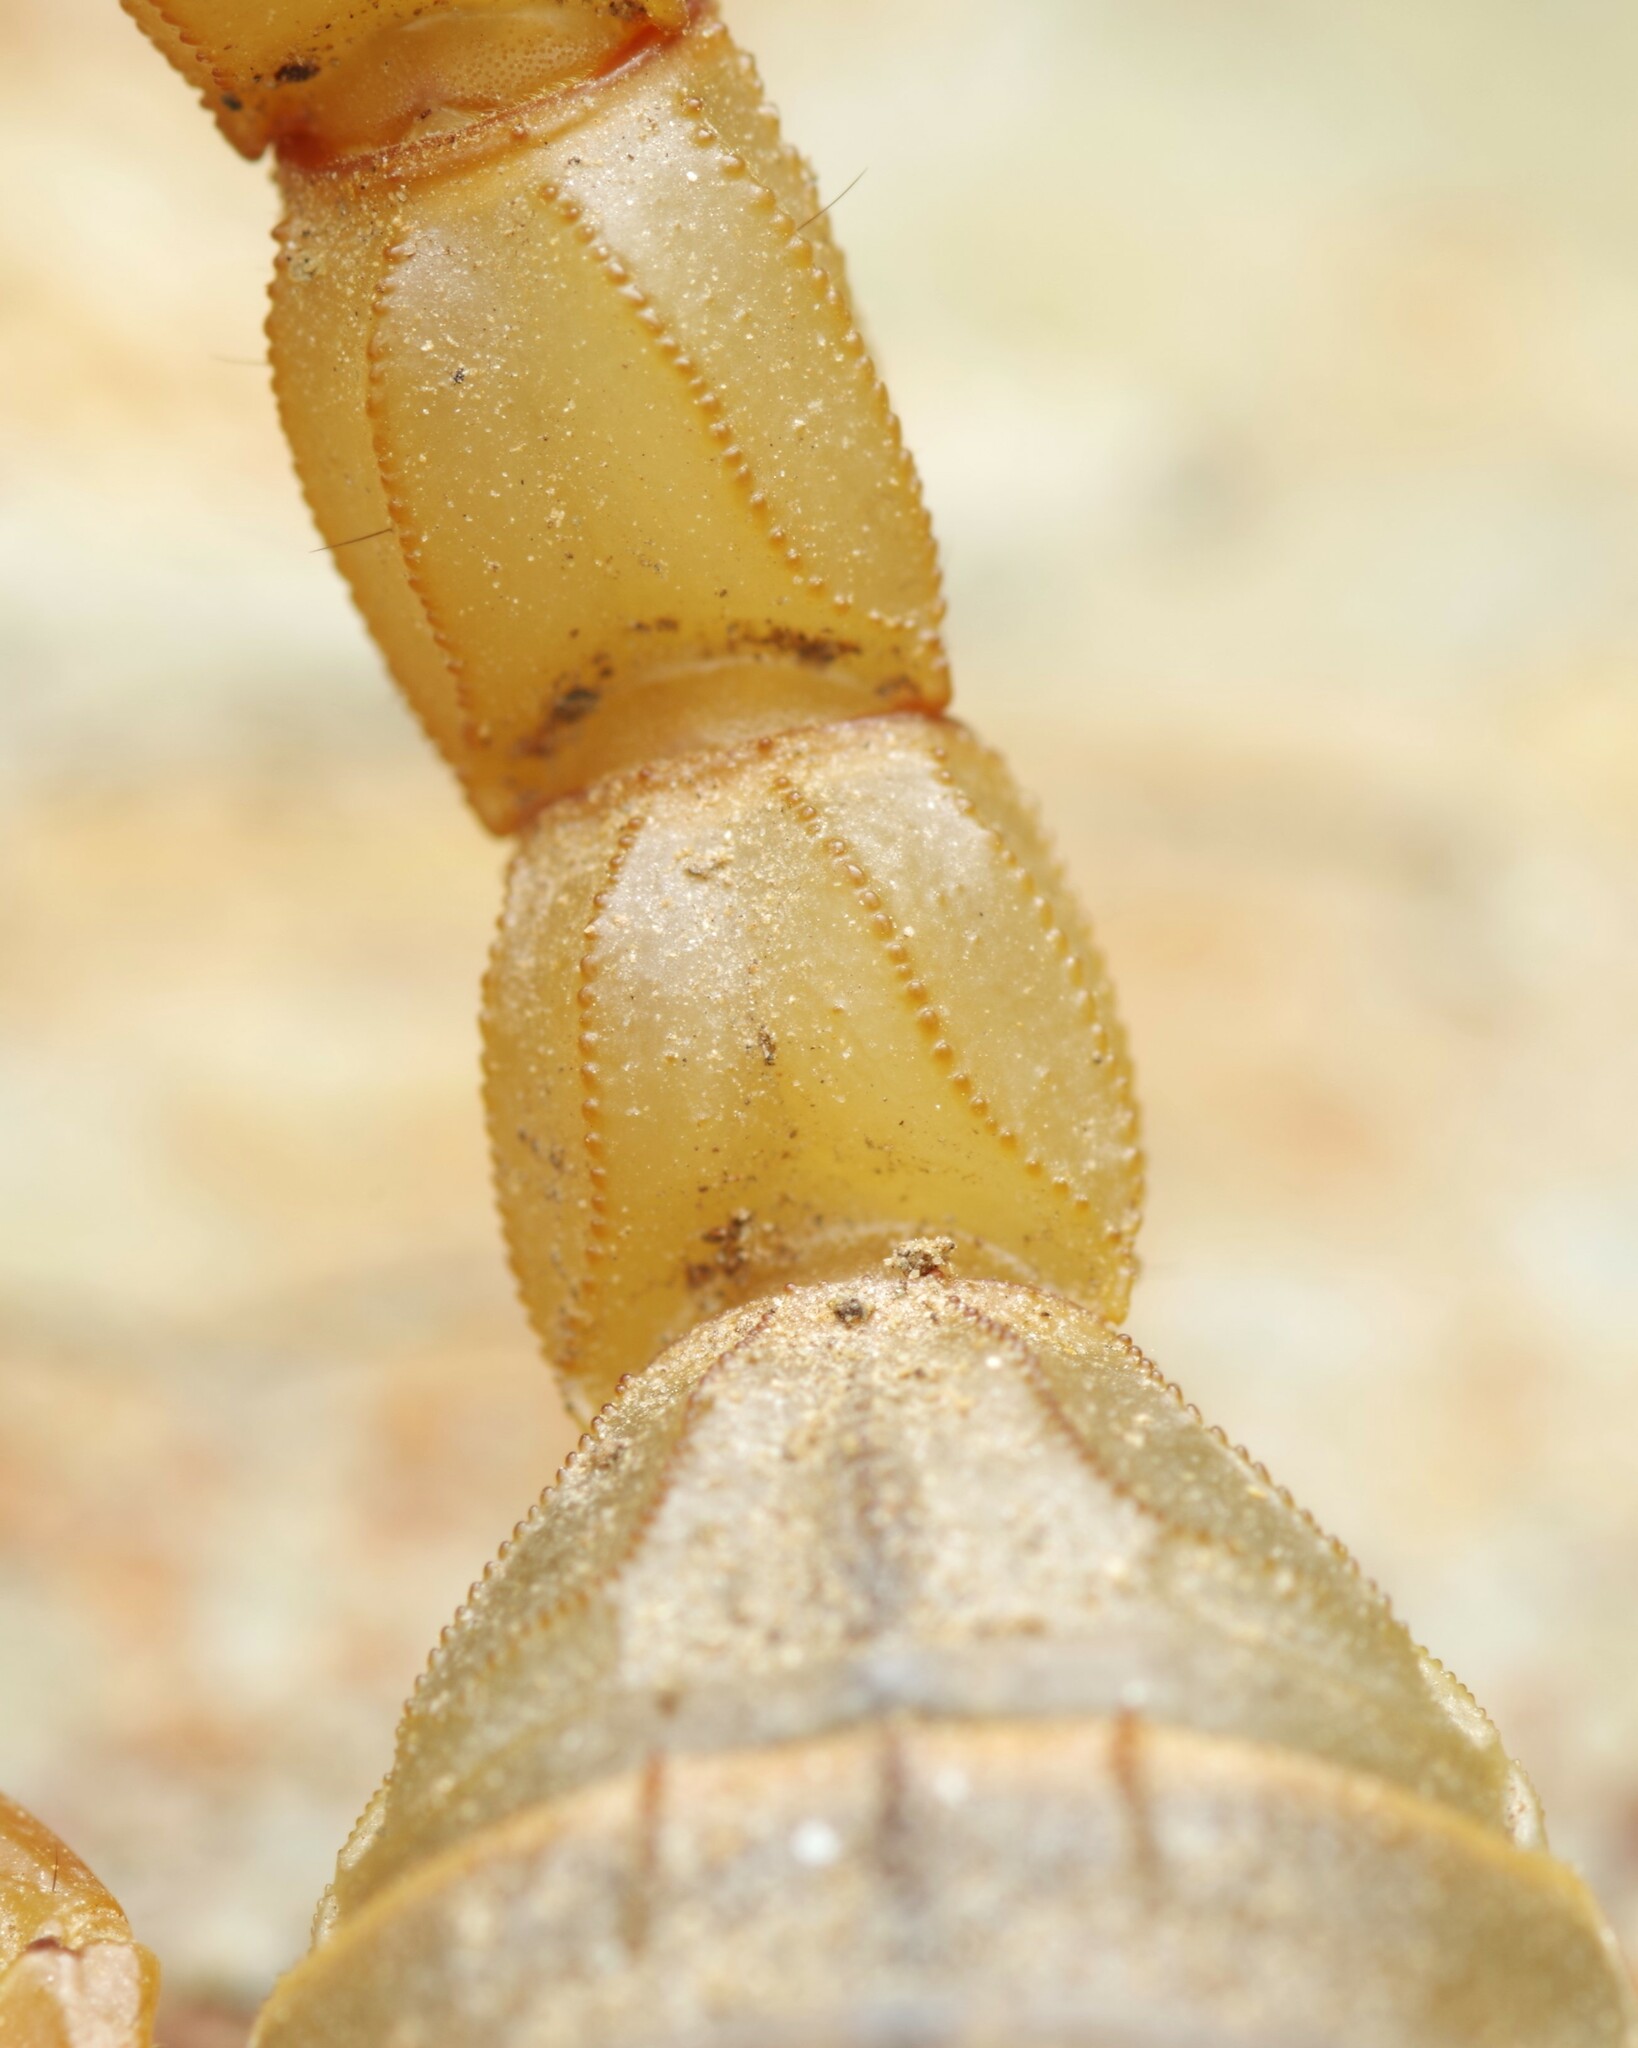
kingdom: Animalia
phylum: Arthropoda
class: Arachnida
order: Scorpiones
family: Buthidae
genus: Buthus
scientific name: Buthus pyrenaeus
